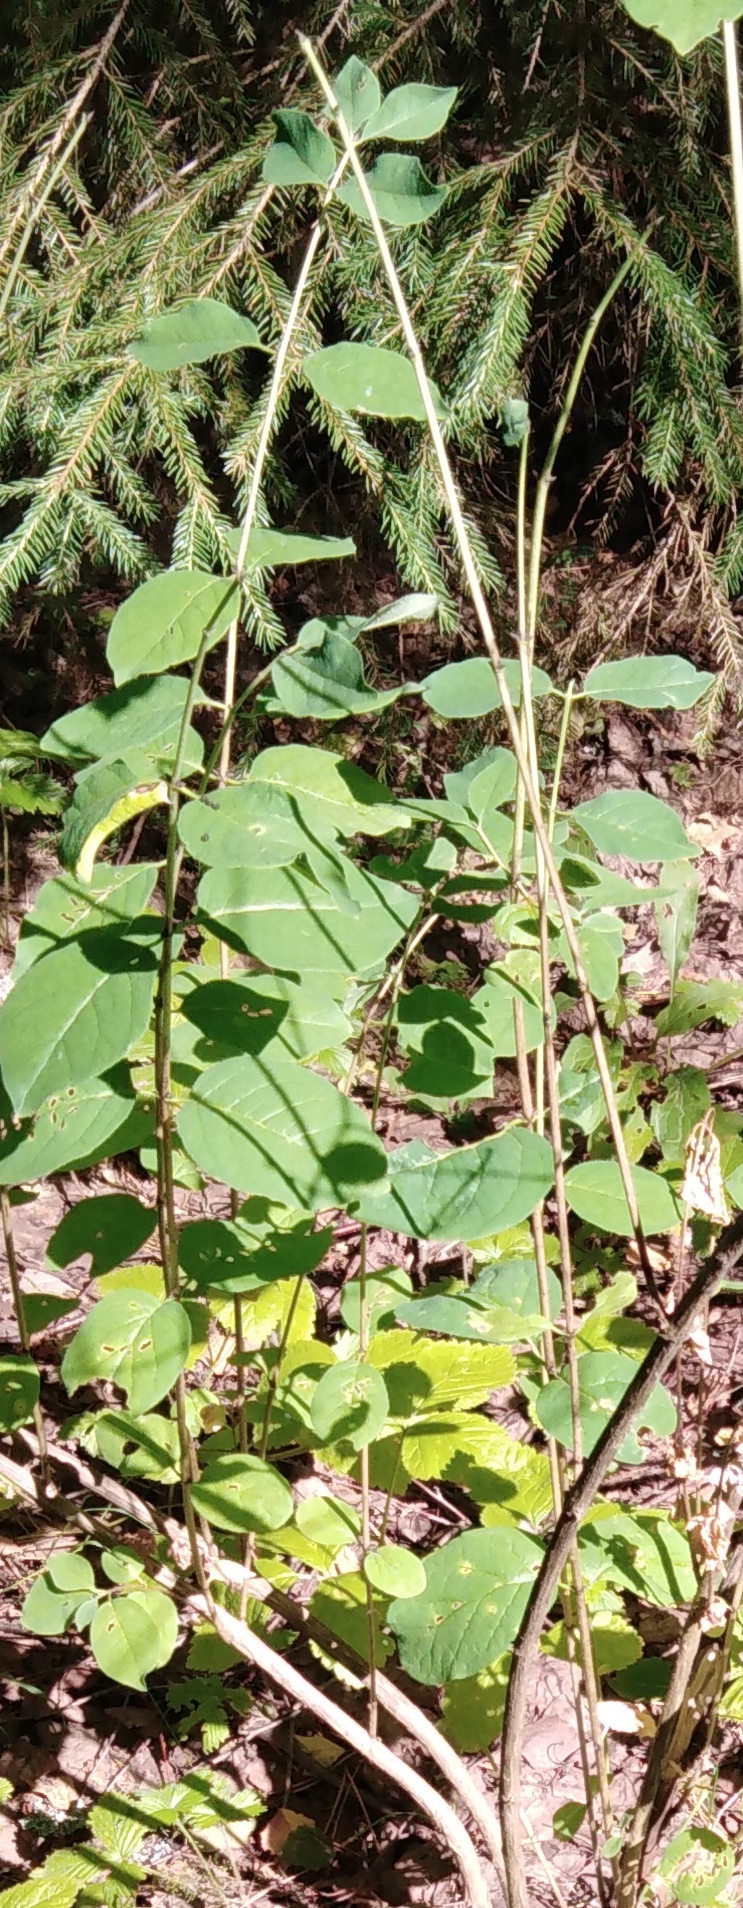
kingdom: Plantae
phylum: Tracheophyta
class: Magnoliopsida
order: Dipsacales
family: Caprifoliaceae
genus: Lonicera
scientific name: Lonicera xylosteum
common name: Fly honeysuckle
